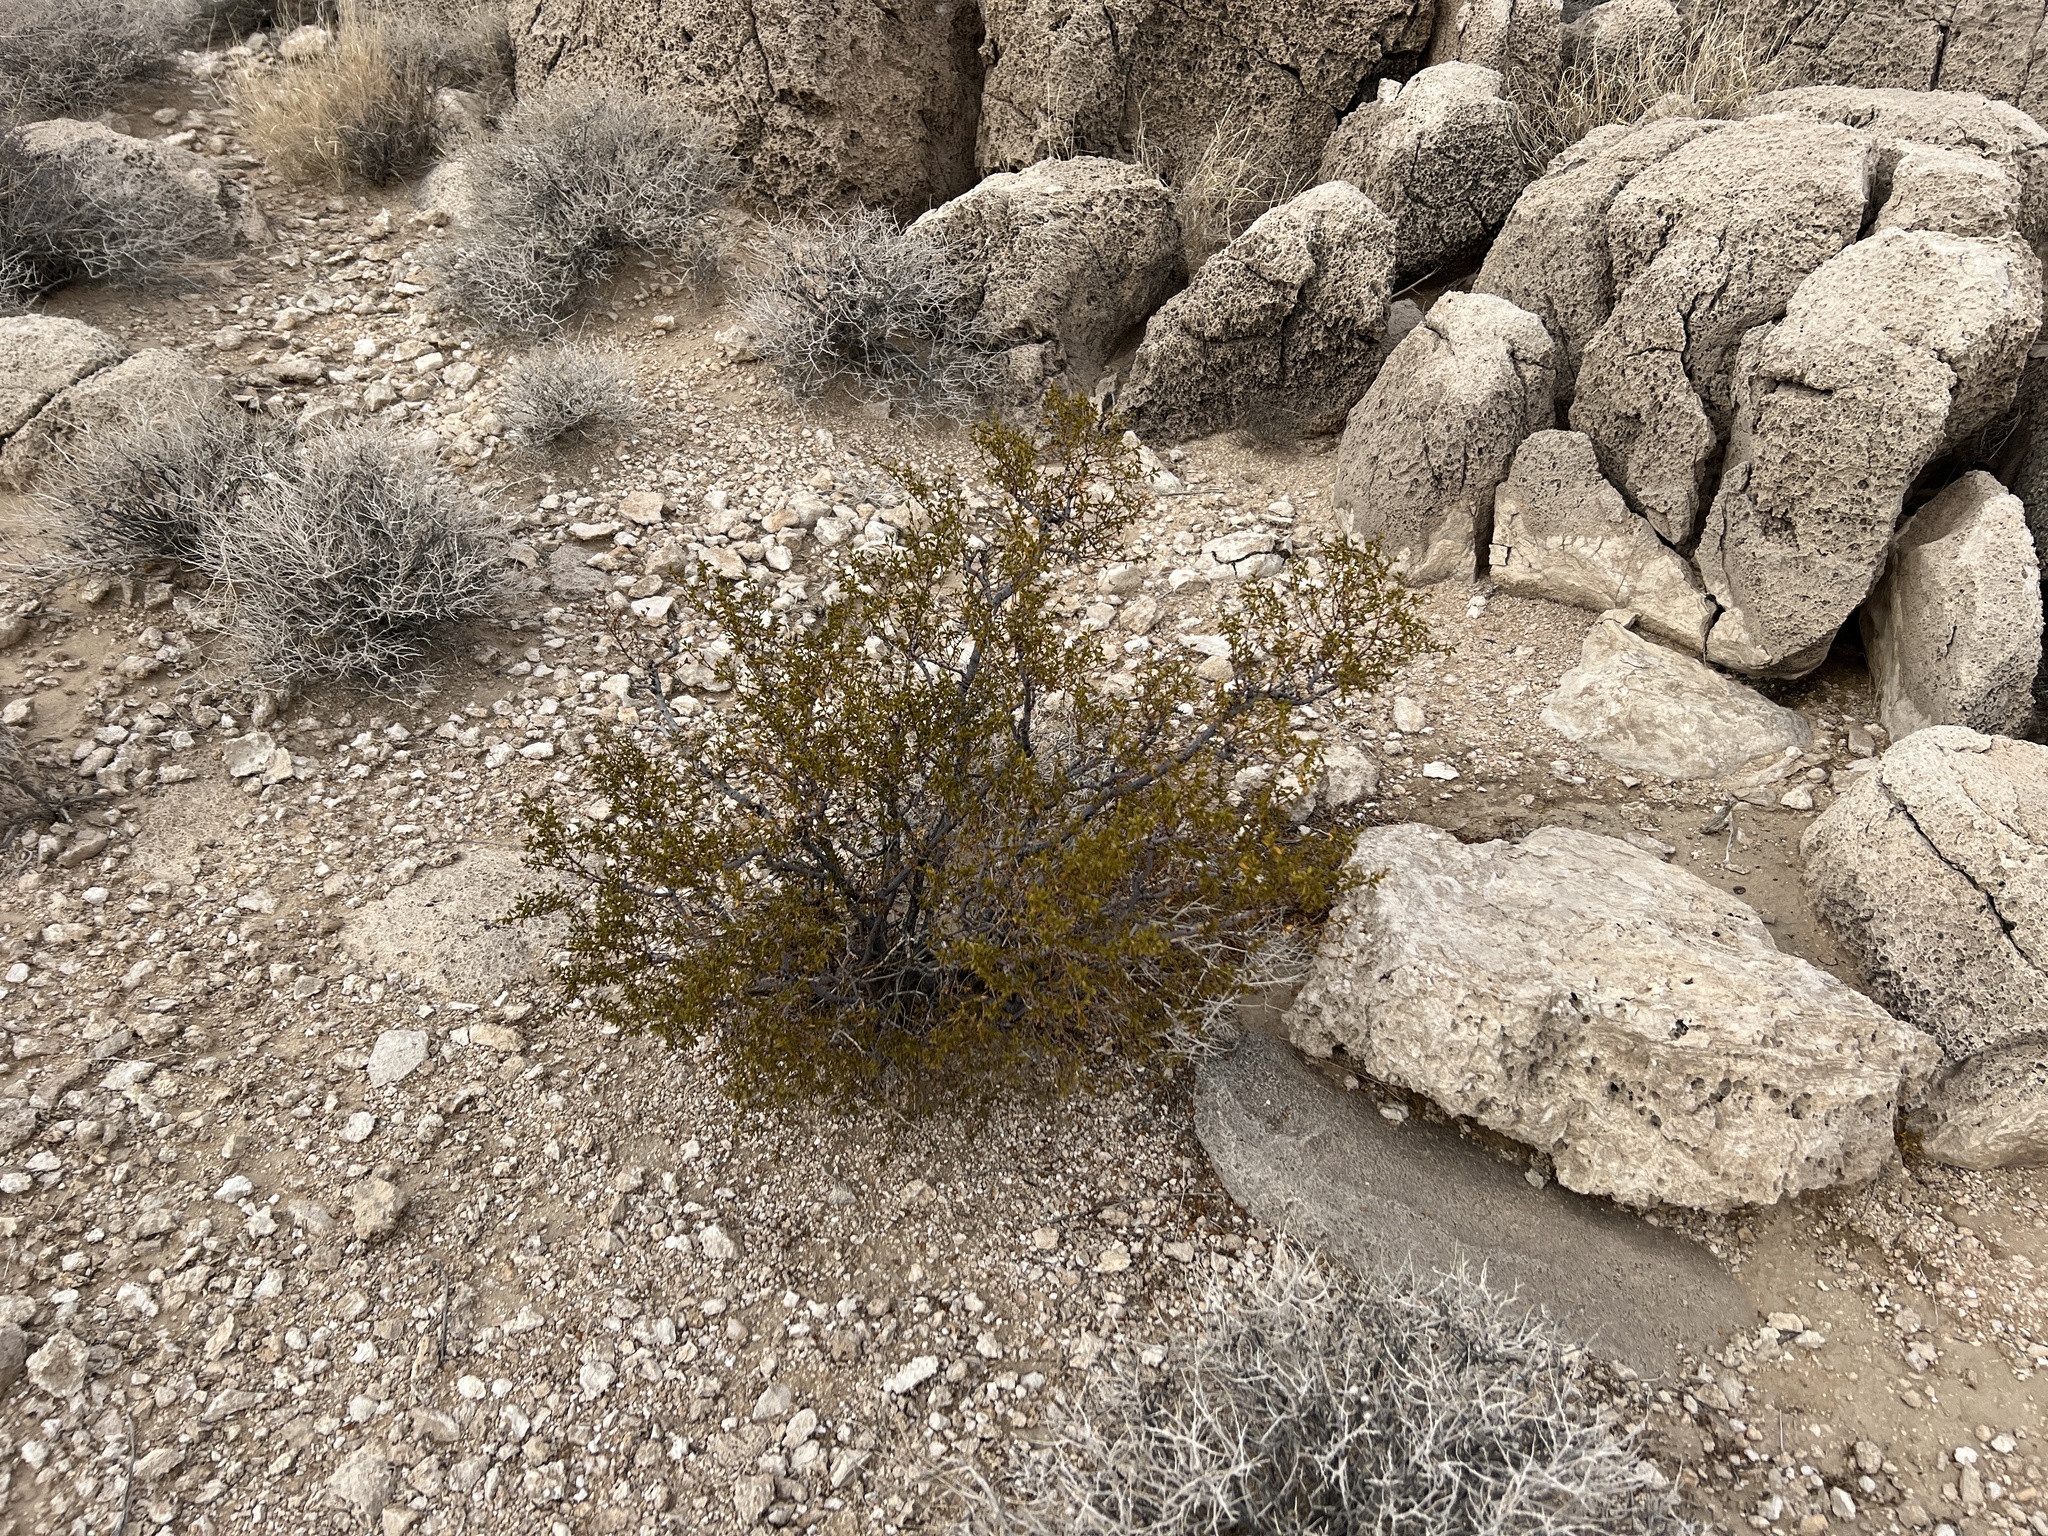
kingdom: Plantae
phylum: Tracheophyta
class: Magnoliopsida
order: Zygophyllales
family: Zygophyllaceae
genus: Larrea
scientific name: Larrea tridentata
